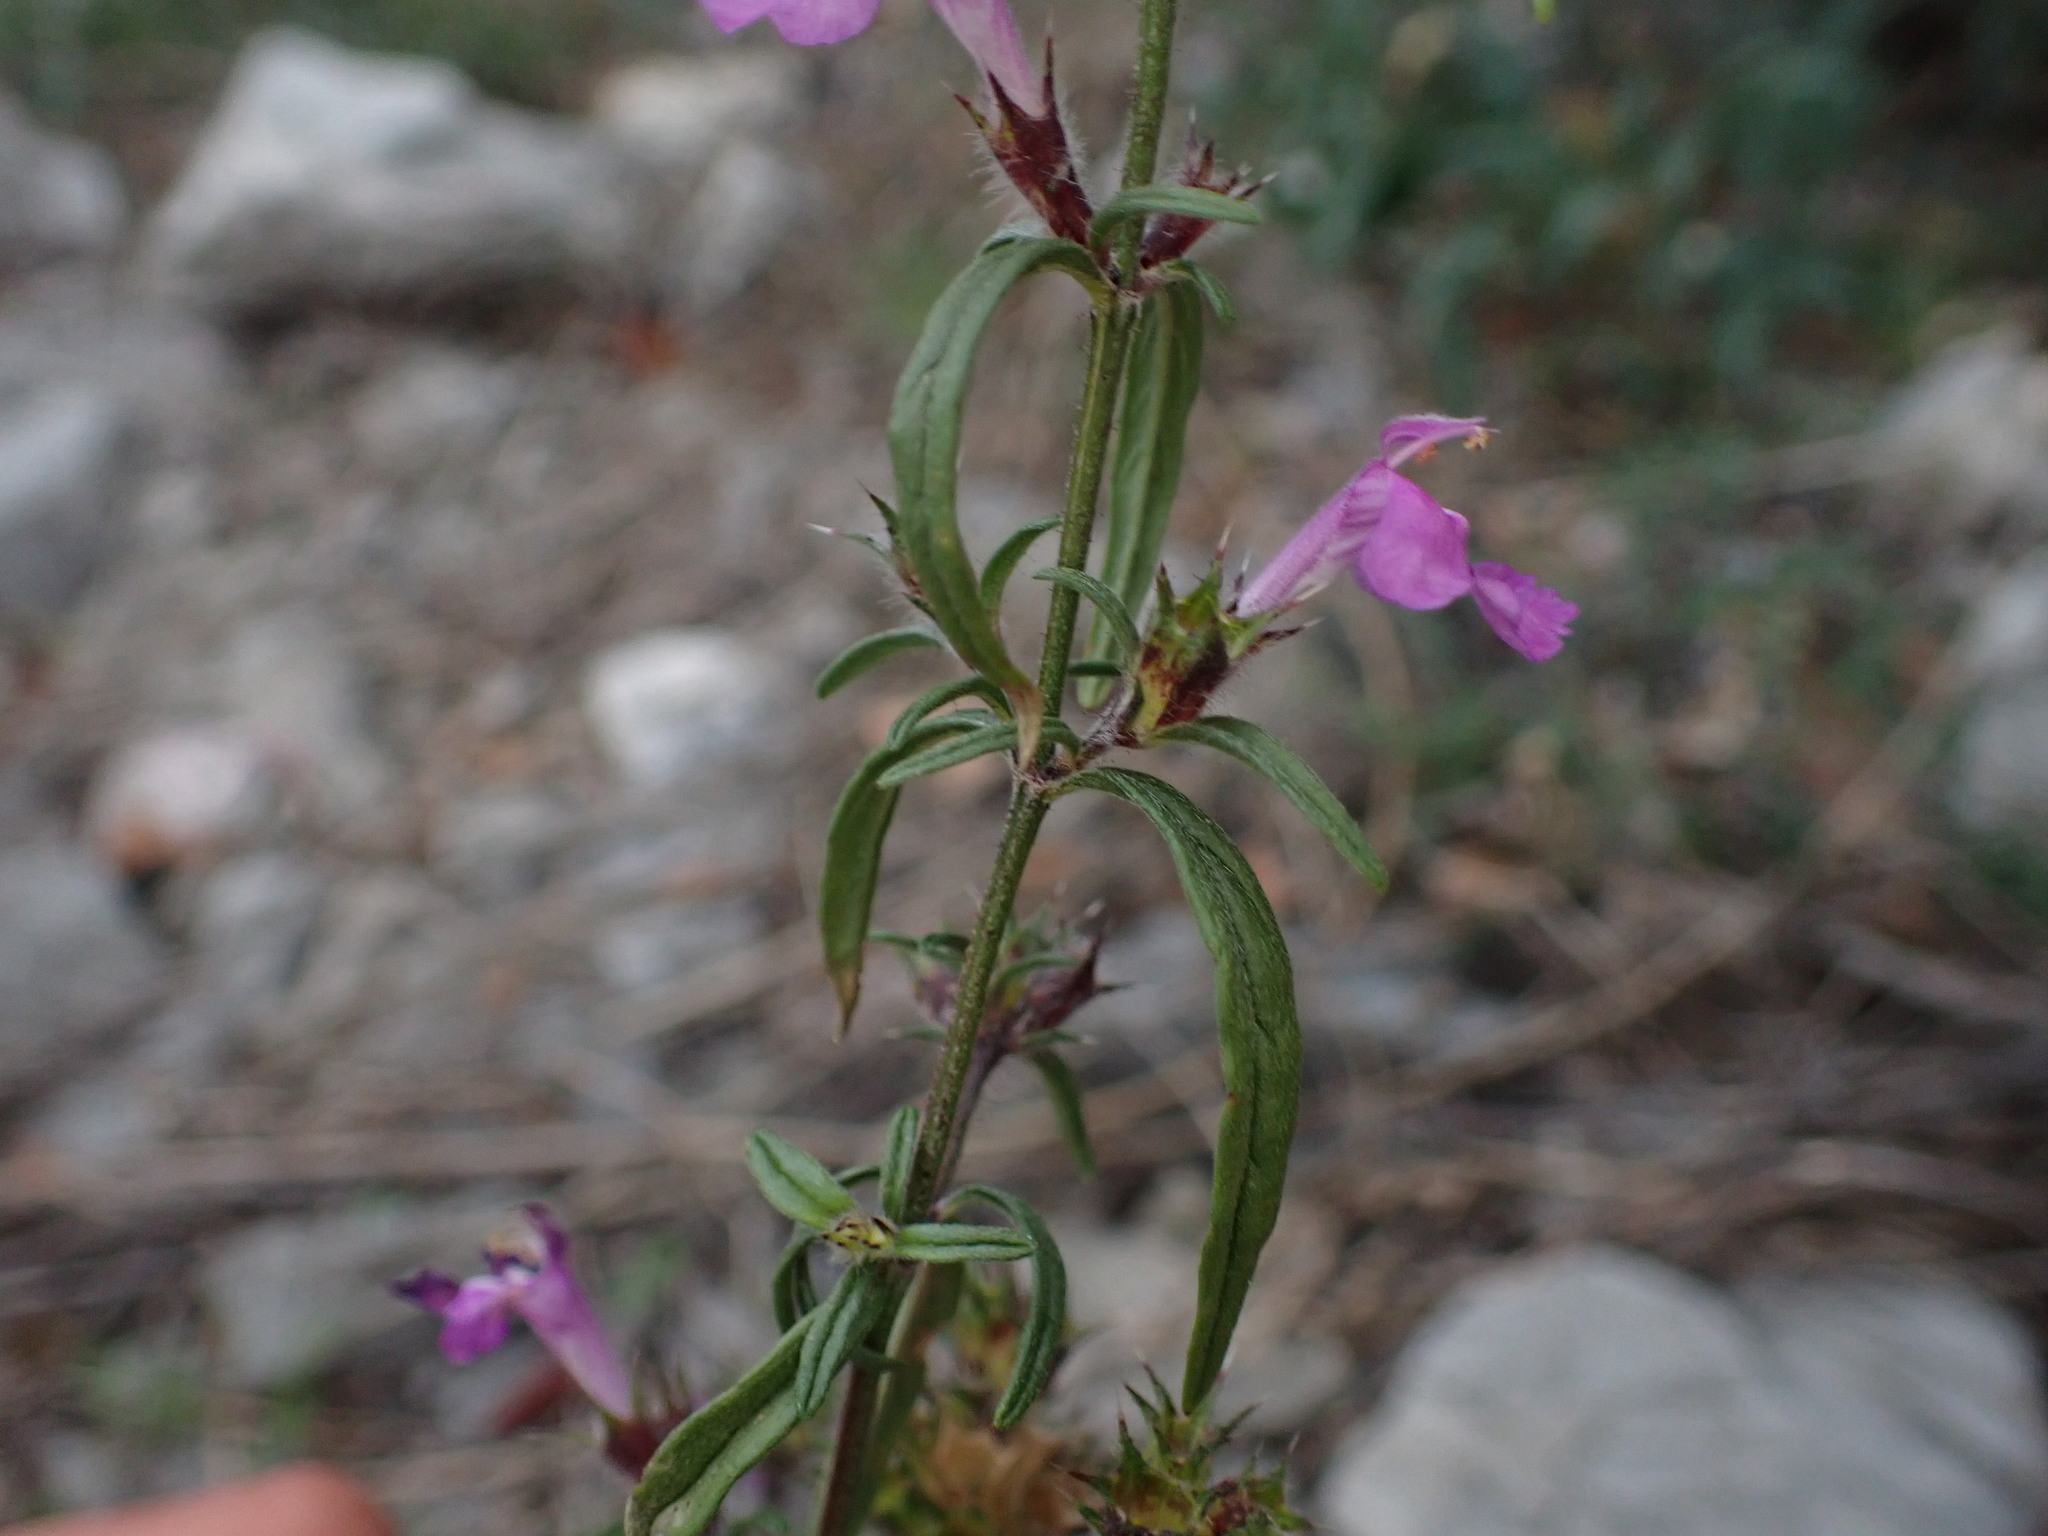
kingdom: Plantae
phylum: Tracheophyta
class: Magnoliopsida
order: Lamiales
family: Lamiaceae
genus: Galeopsis
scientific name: Galeopsis angustifolia
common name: Red hemp-nettle
